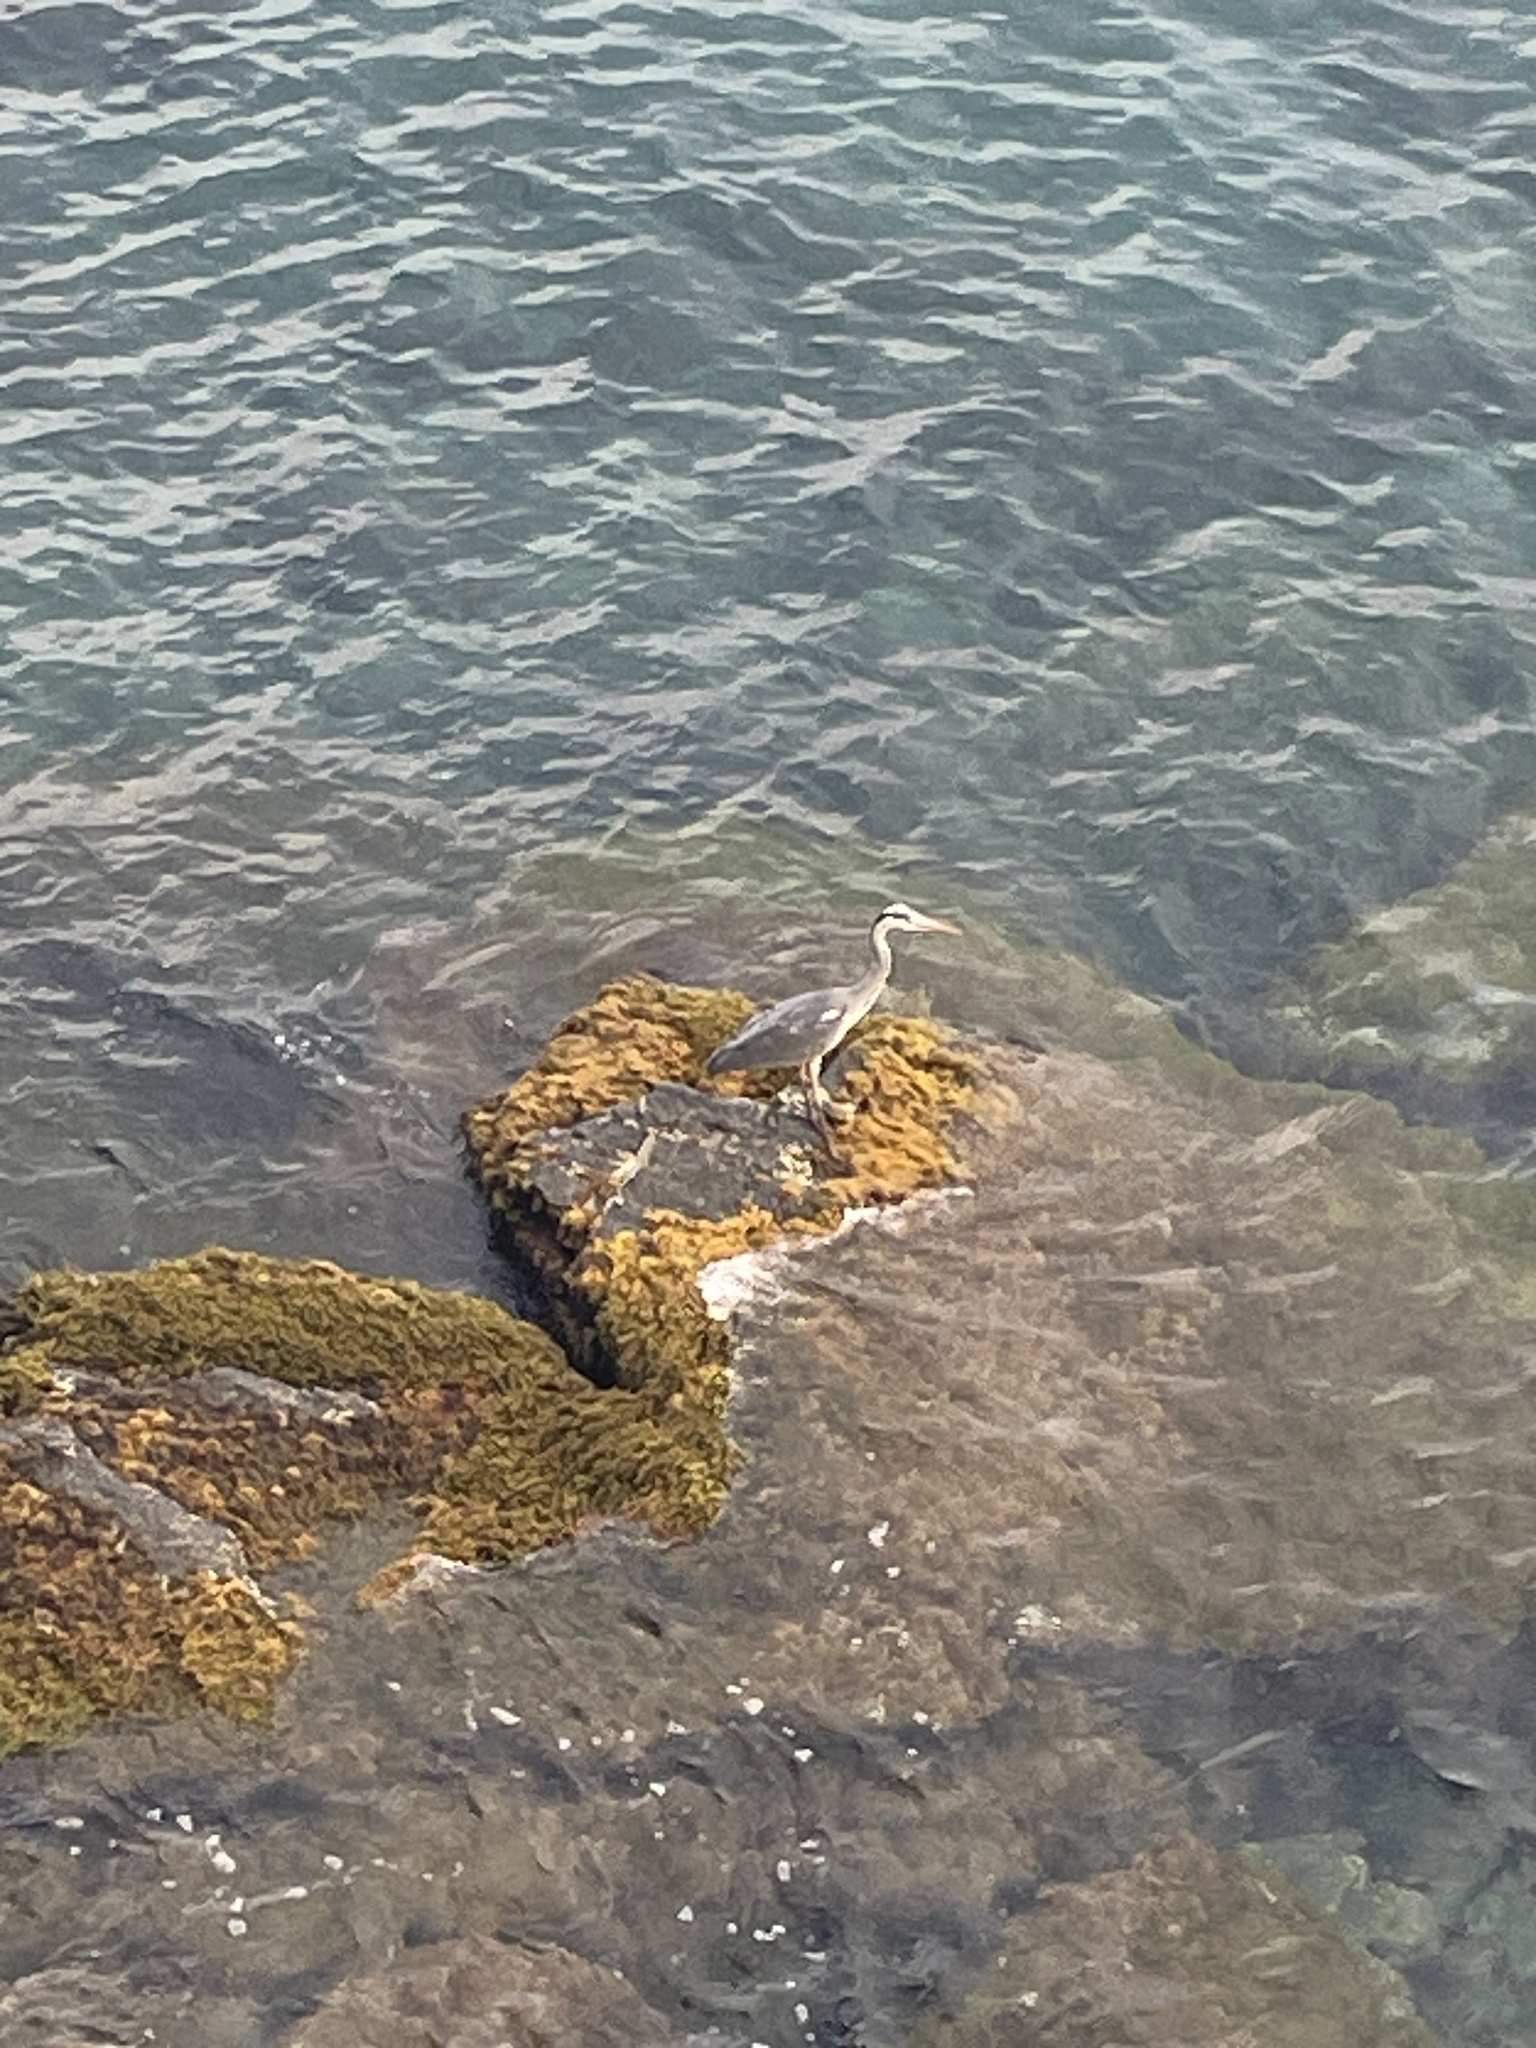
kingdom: Animalia
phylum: Chordata
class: Aves
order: Pelecaniformes
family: Ardeidae
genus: Ardea
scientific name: Ardea cinerea
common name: Grey heron
